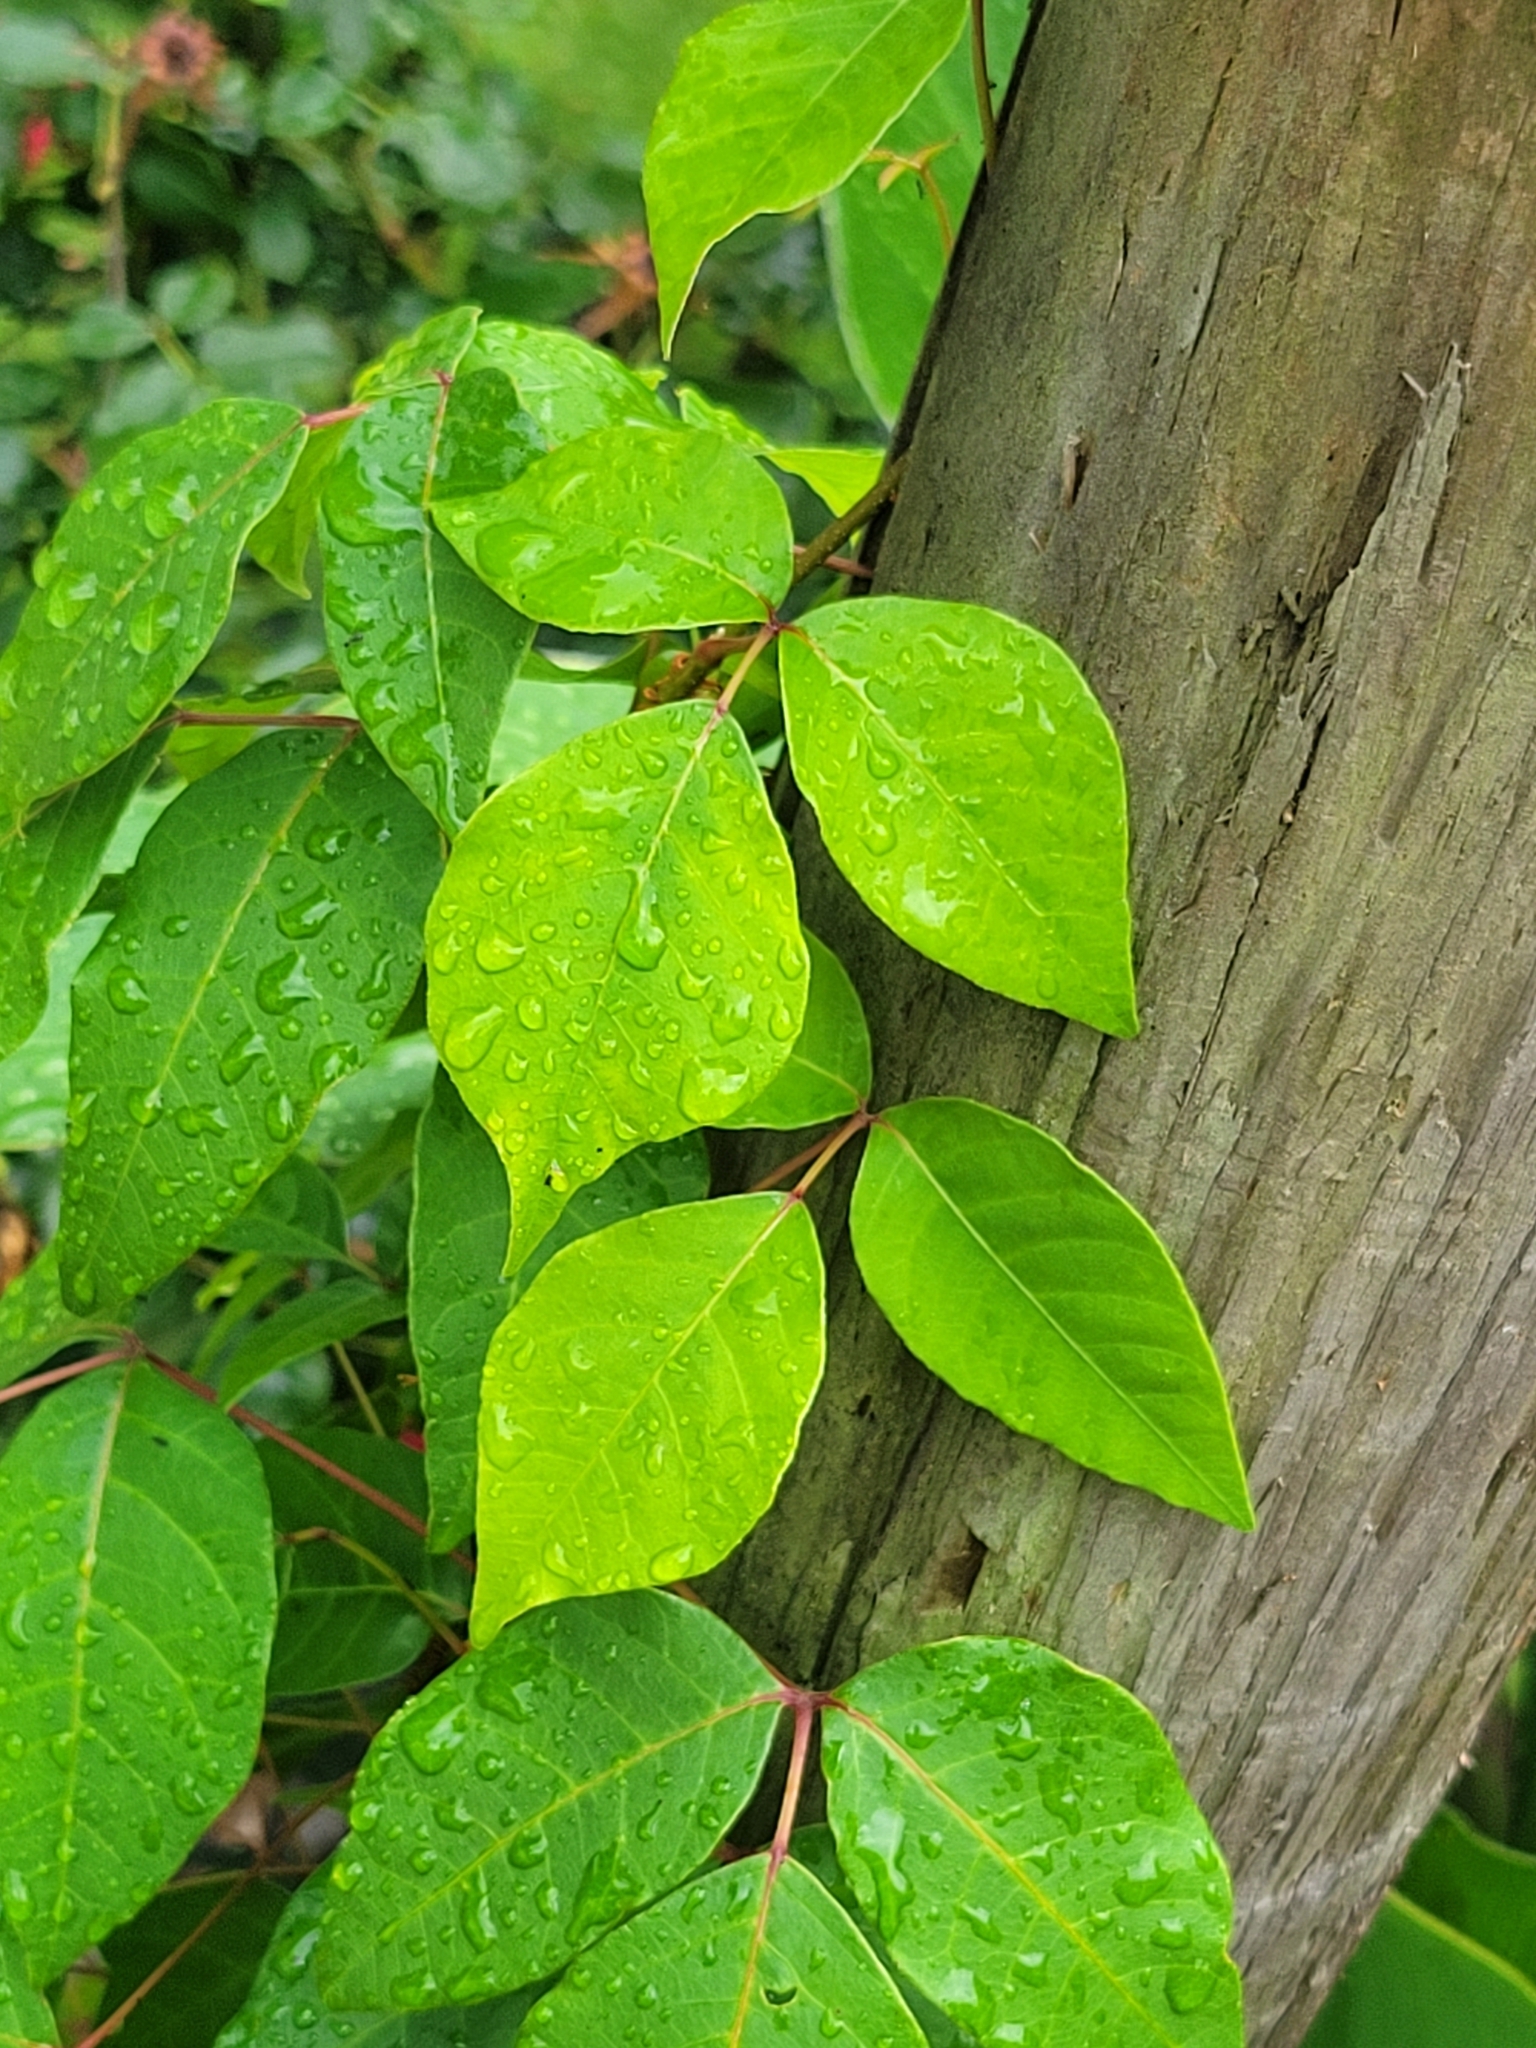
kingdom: Plantae
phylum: Tracheophyta
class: Magnoliopsida
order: Sapindales
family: Anacardiaceae
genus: Toxicodendron
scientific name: Toxicodendron radicans
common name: Poison ivy
